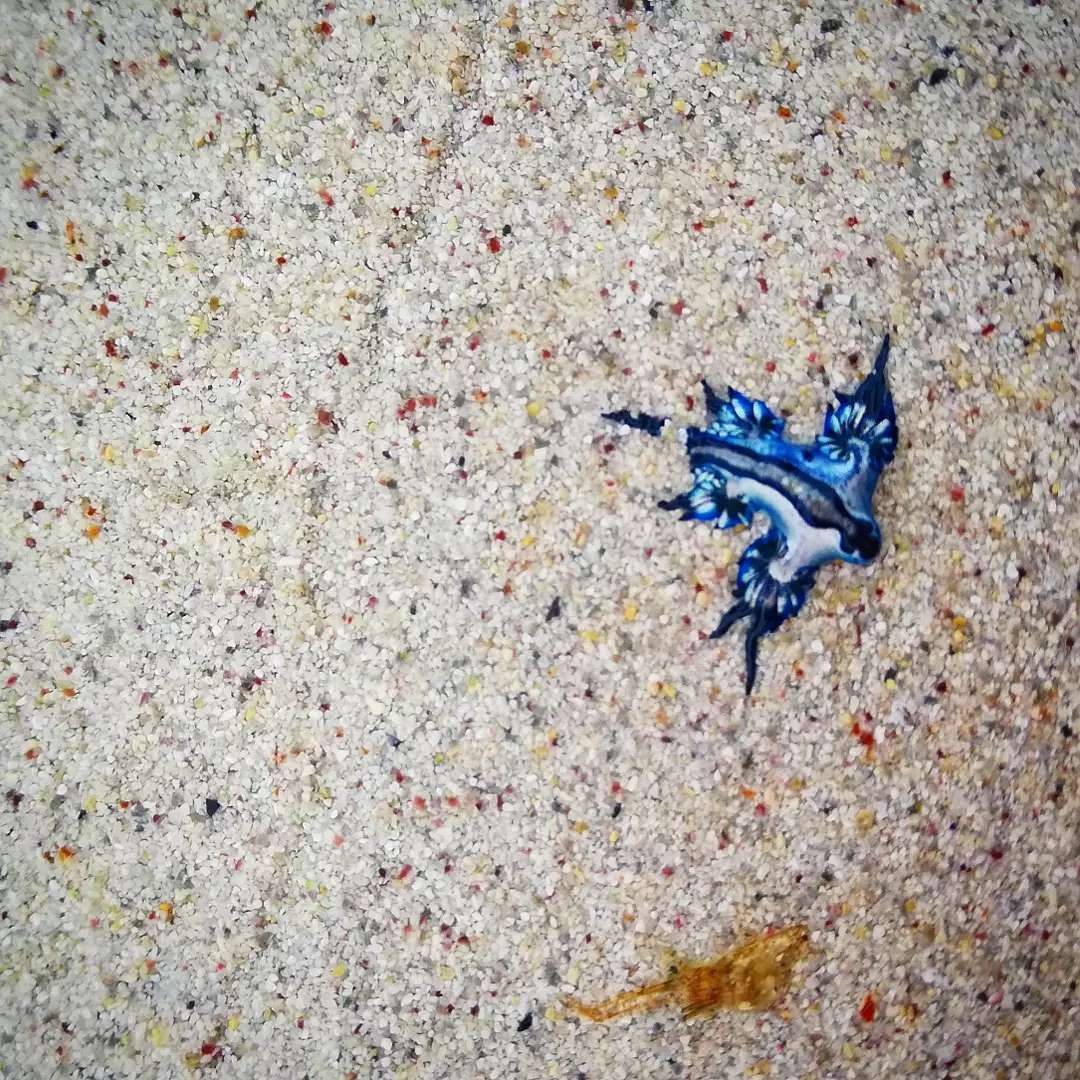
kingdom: Animalia
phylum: Mollusca
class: Gastropoda
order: Nudibranchia
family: Glaucidae
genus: Glaucilla
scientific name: Glaucilla thompsoni
